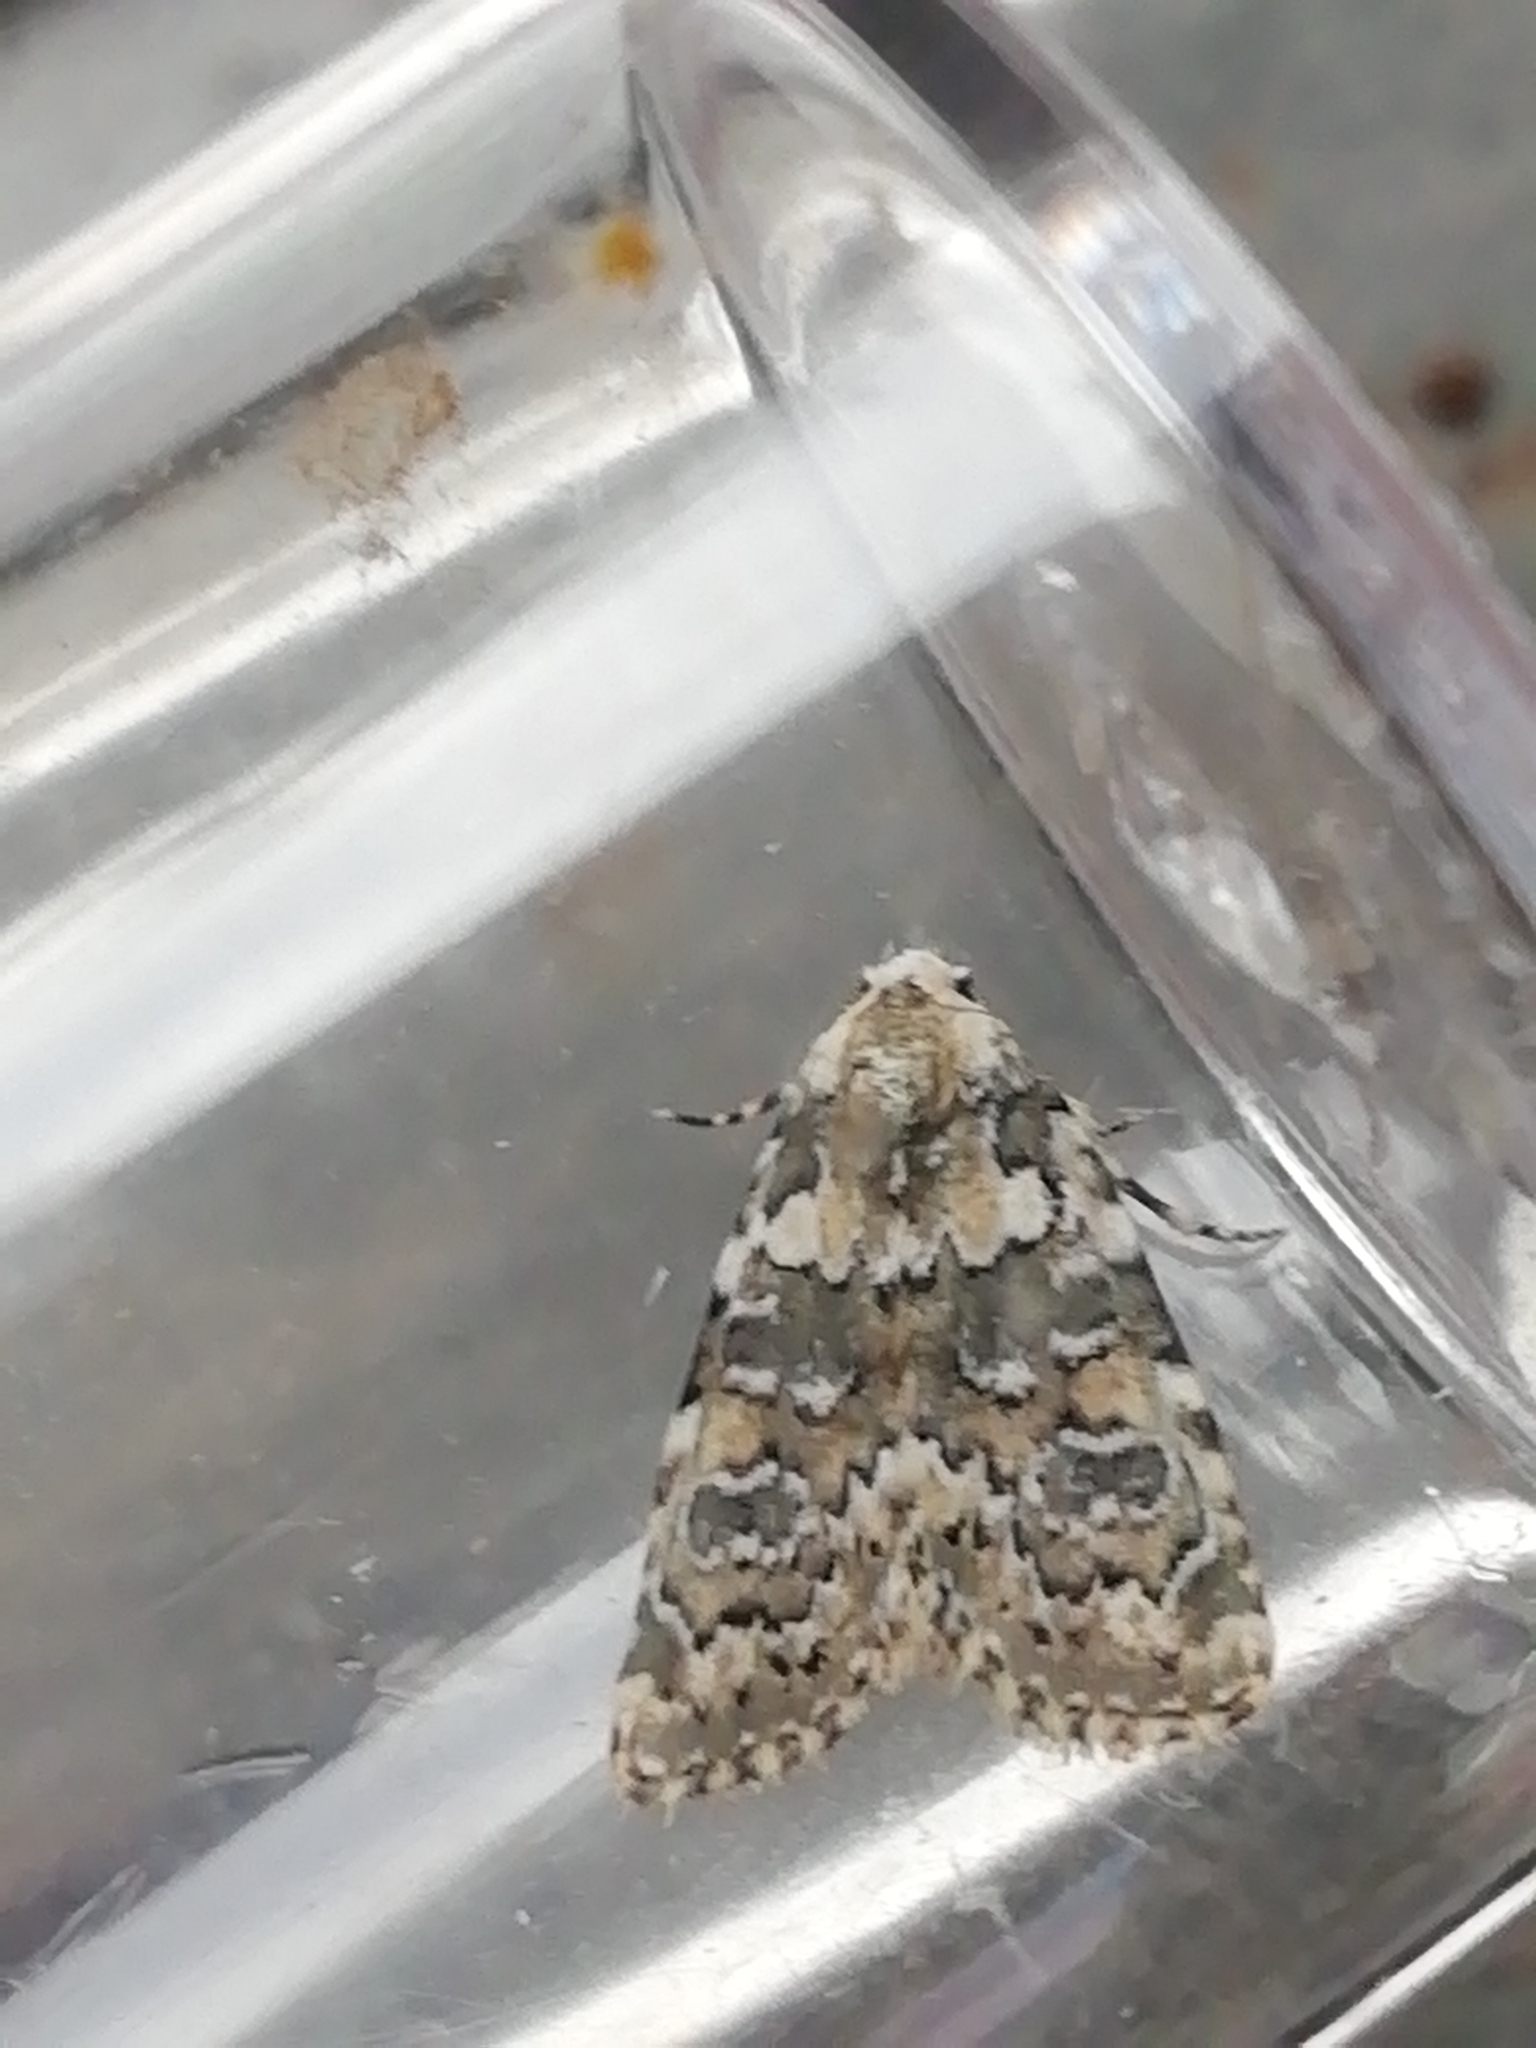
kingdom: Animalia
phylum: Arthropoda
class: Insecta
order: Lepidoptera
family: Noctuidae
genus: Bryophila
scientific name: Bryophila domestica
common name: Marbled beauty
